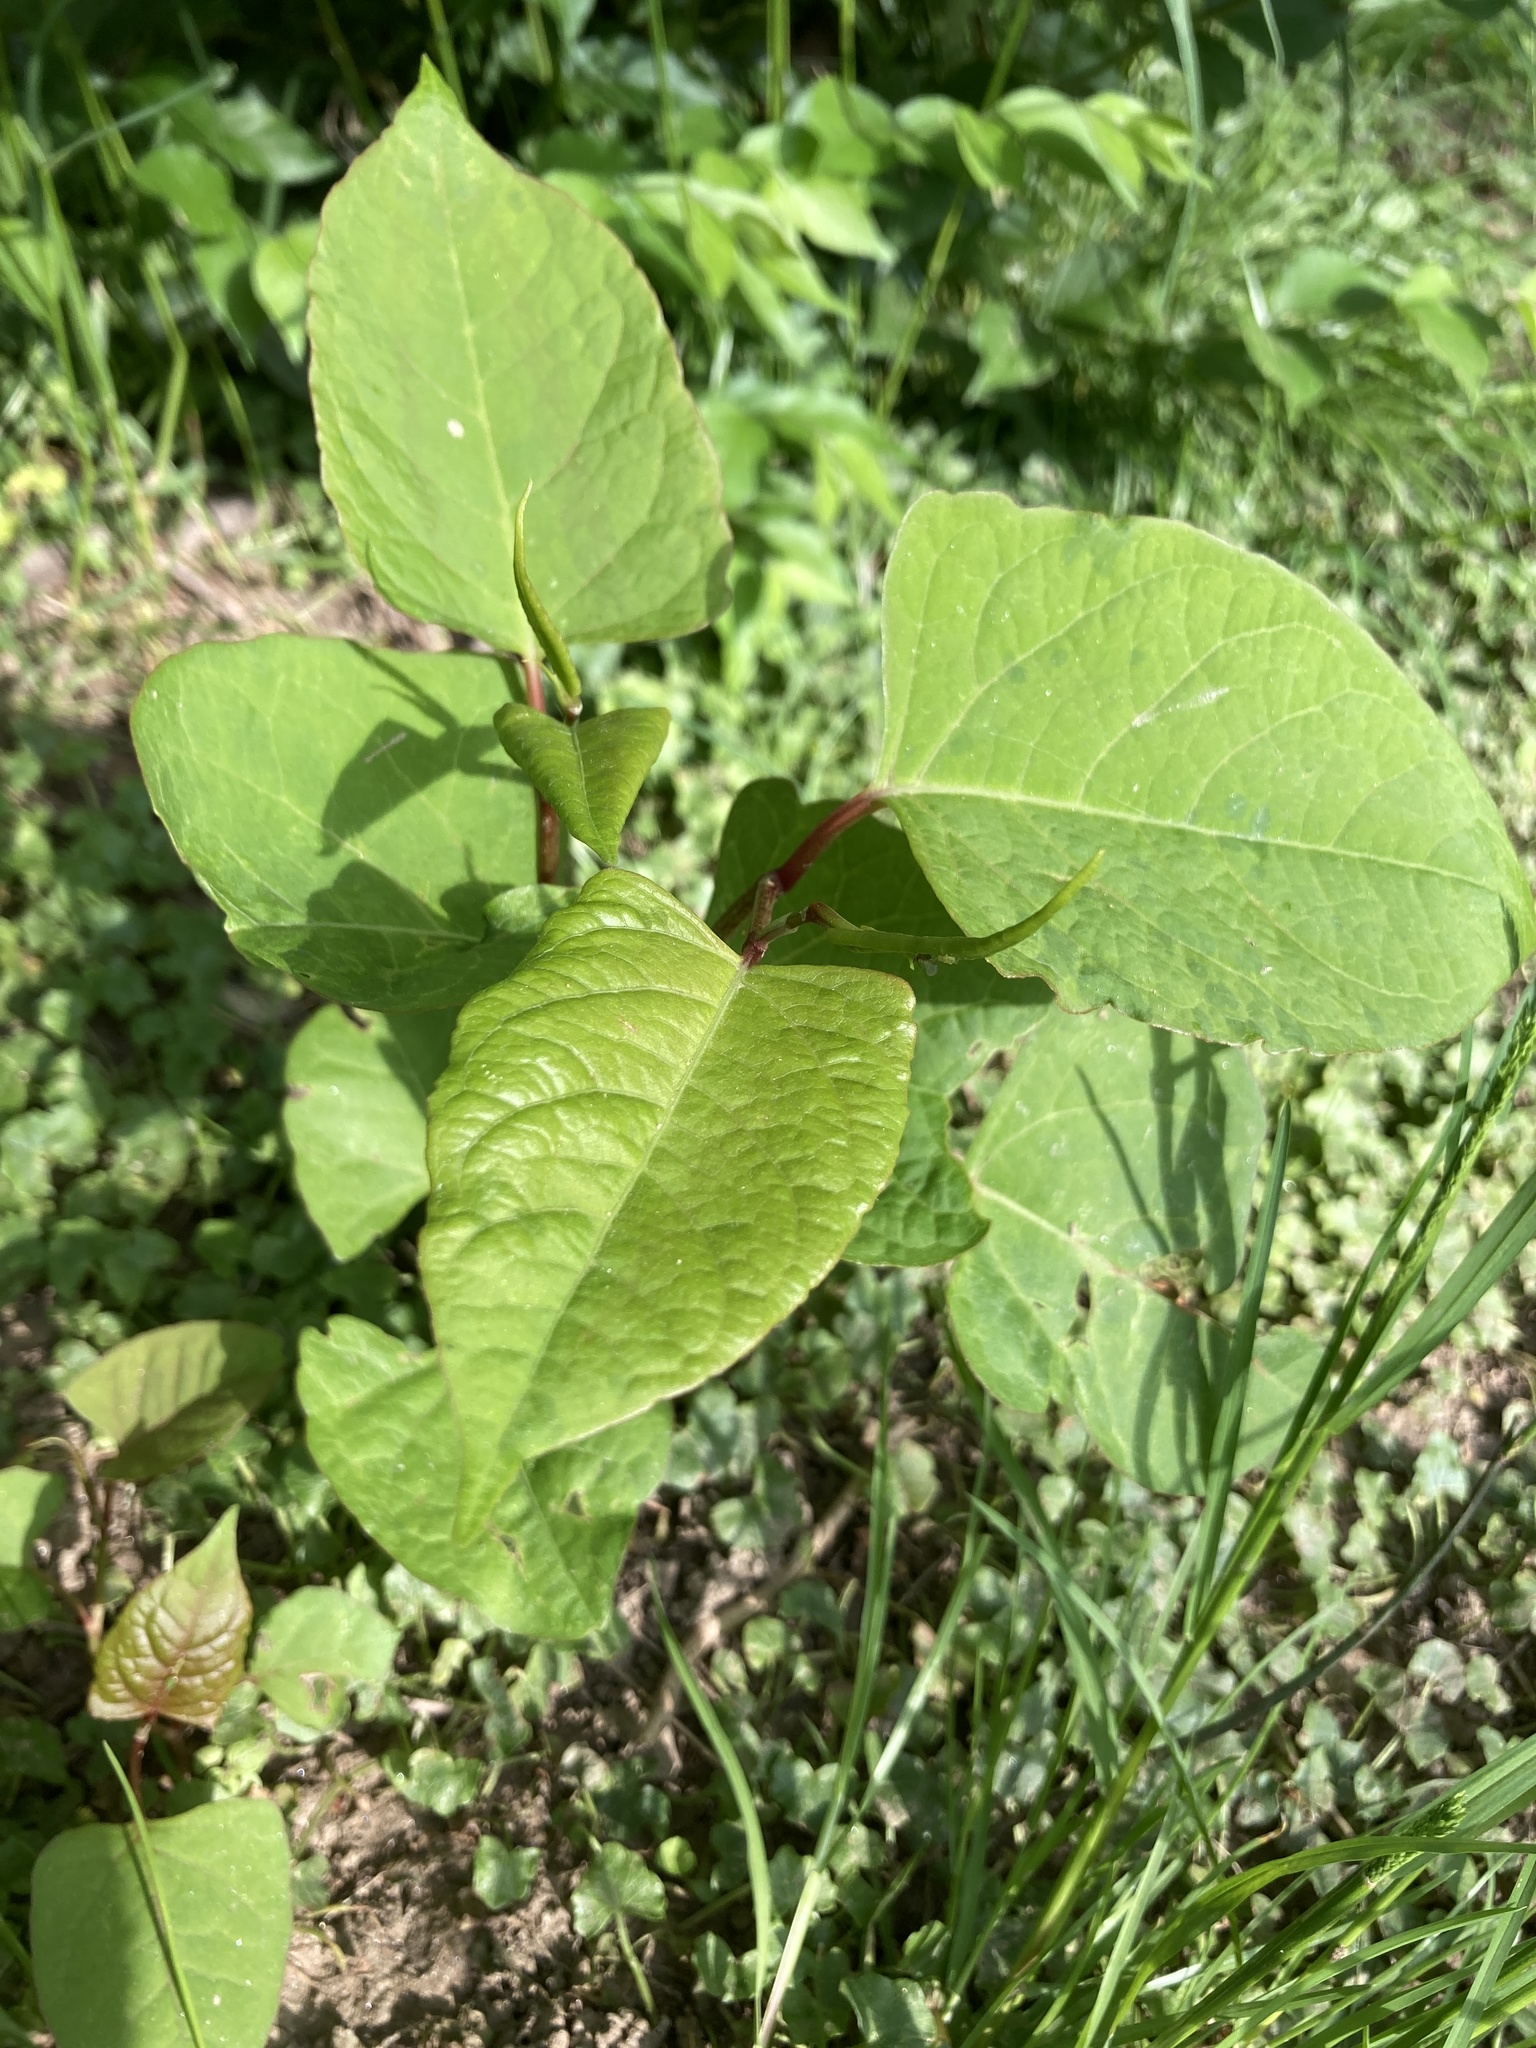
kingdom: Plantae
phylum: Tracheophyta
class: Magnoliopsida
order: Caryophyllales
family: Polygonaceae
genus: Reynoutria
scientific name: Reynoutria japonica
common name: Japanese knotweed
